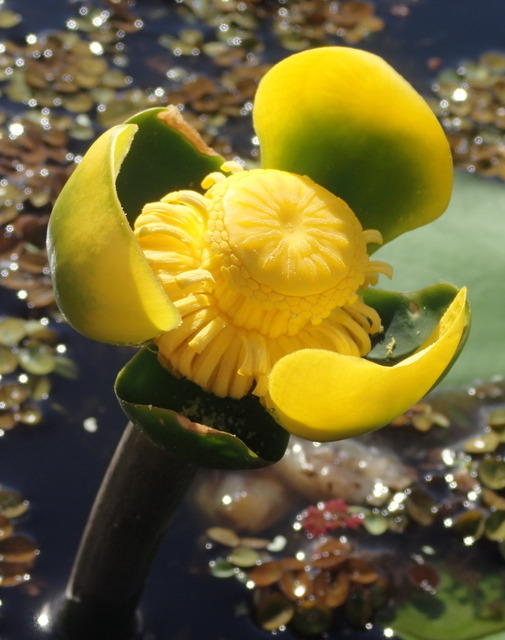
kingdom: Plantae
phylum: Tracheophyta
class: Magnoliopsida
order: Nymphaeales
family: Nymphaeaceae
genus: Nuphar
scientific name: Nuphar advena
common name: Spatter-dock
